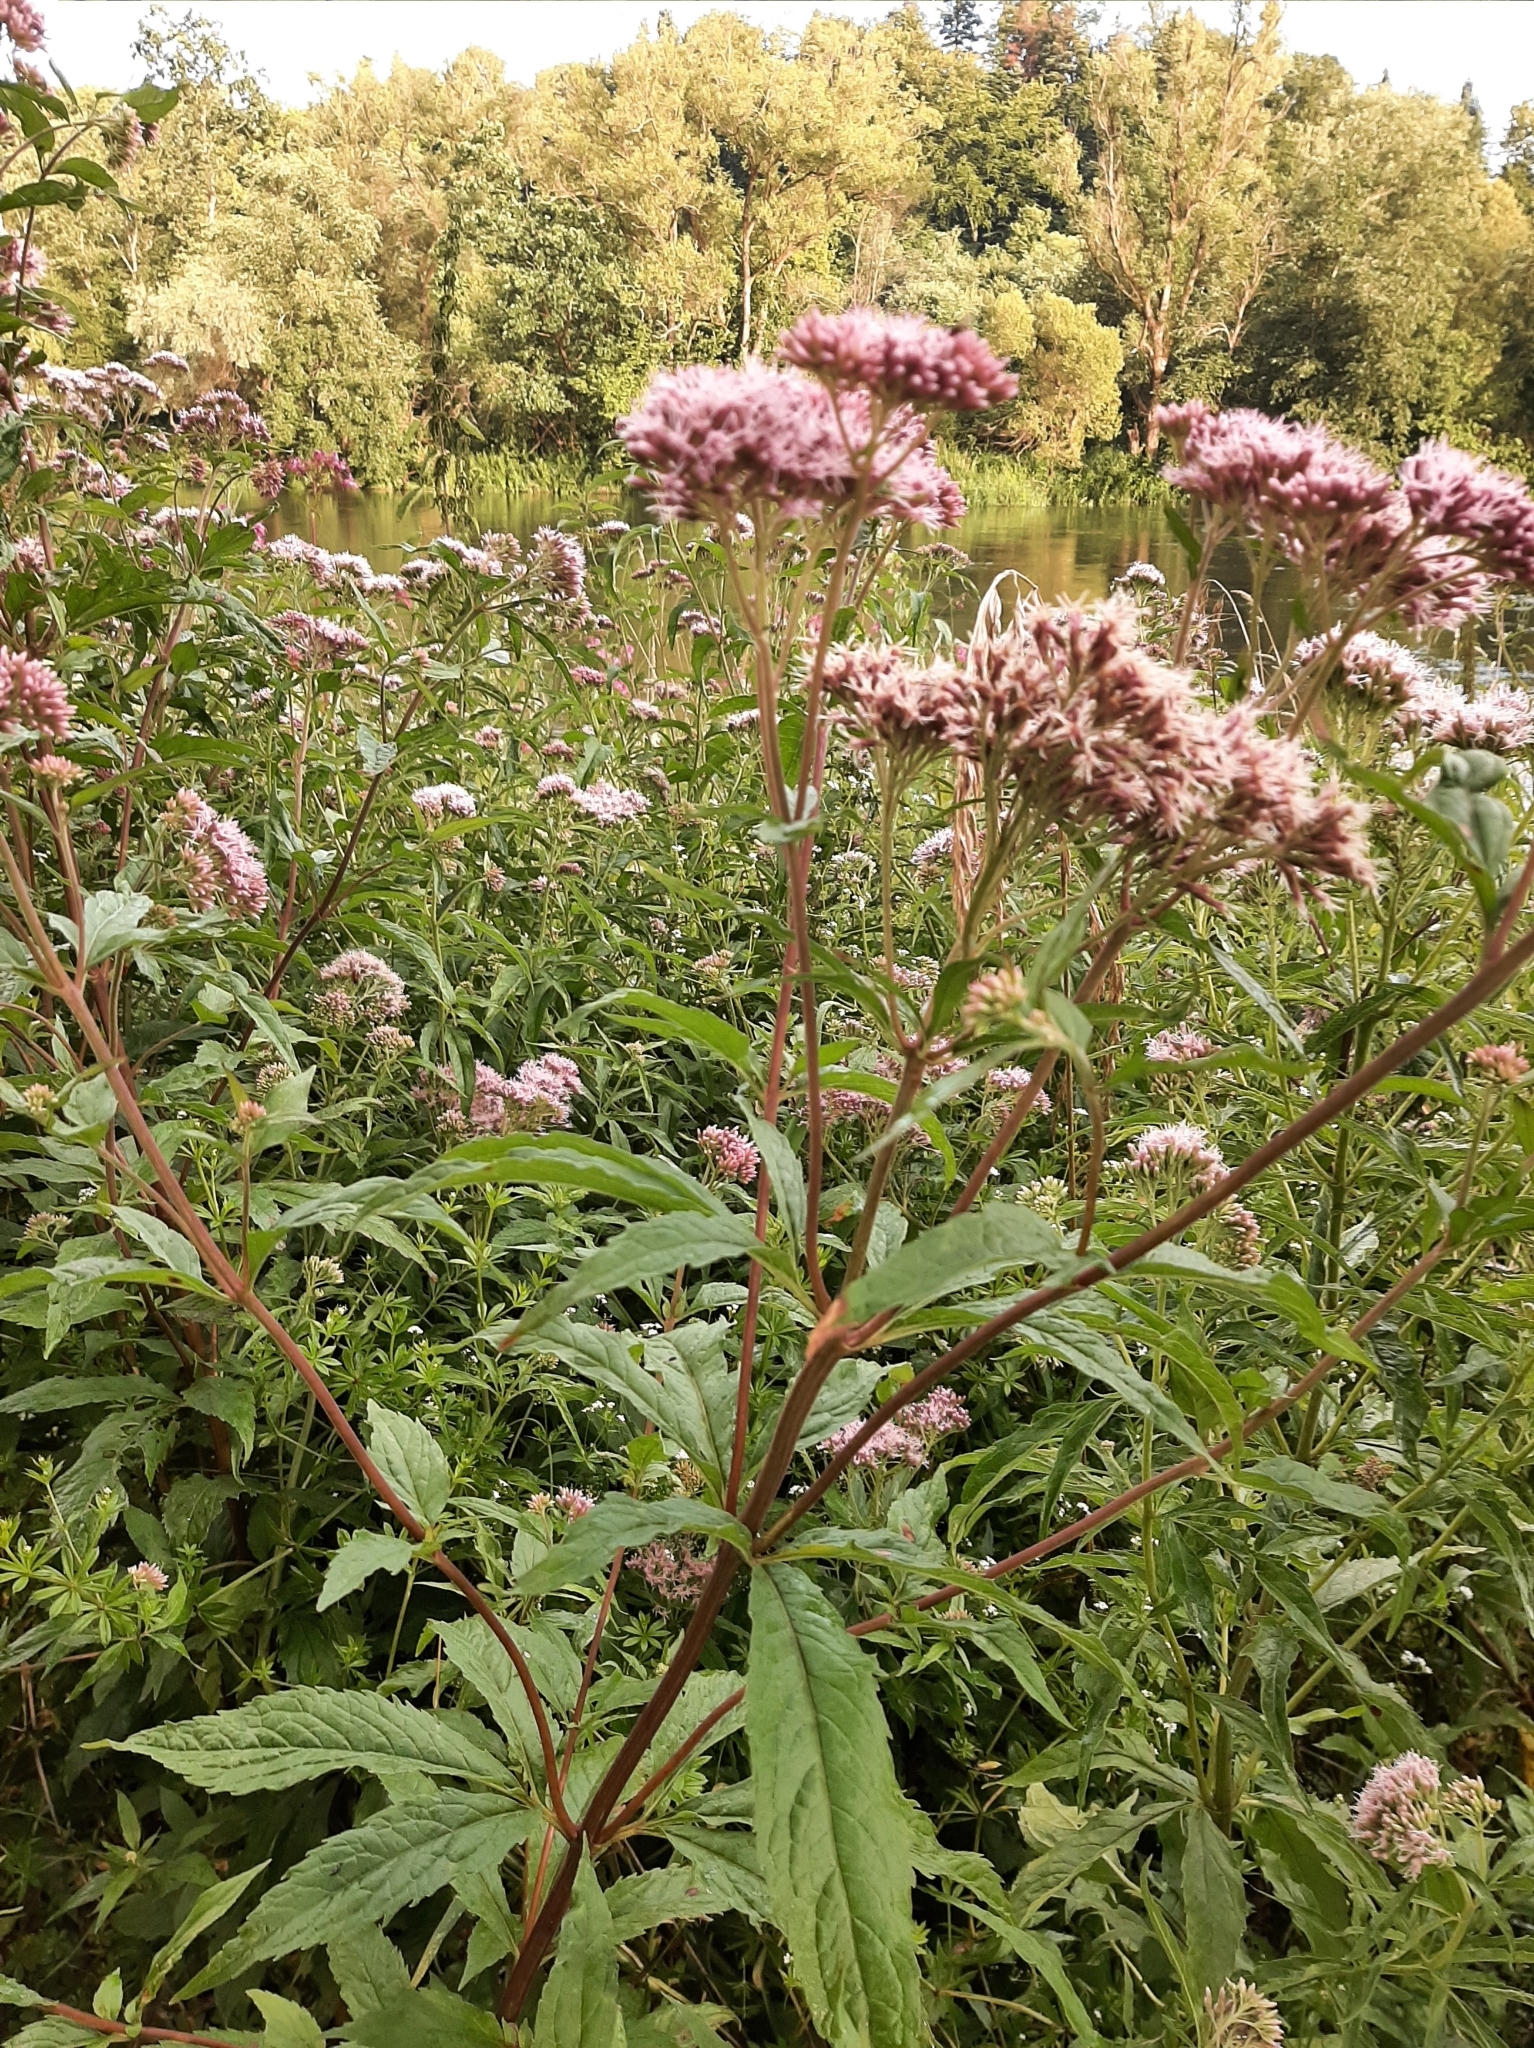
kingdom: Plantae
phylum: Tracheophyta
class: Magnoliopsida
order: Asterales
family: Asteraceae
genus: Eupatorium
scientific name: Eupatorium cannabinum
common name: Hemp-agrimony
